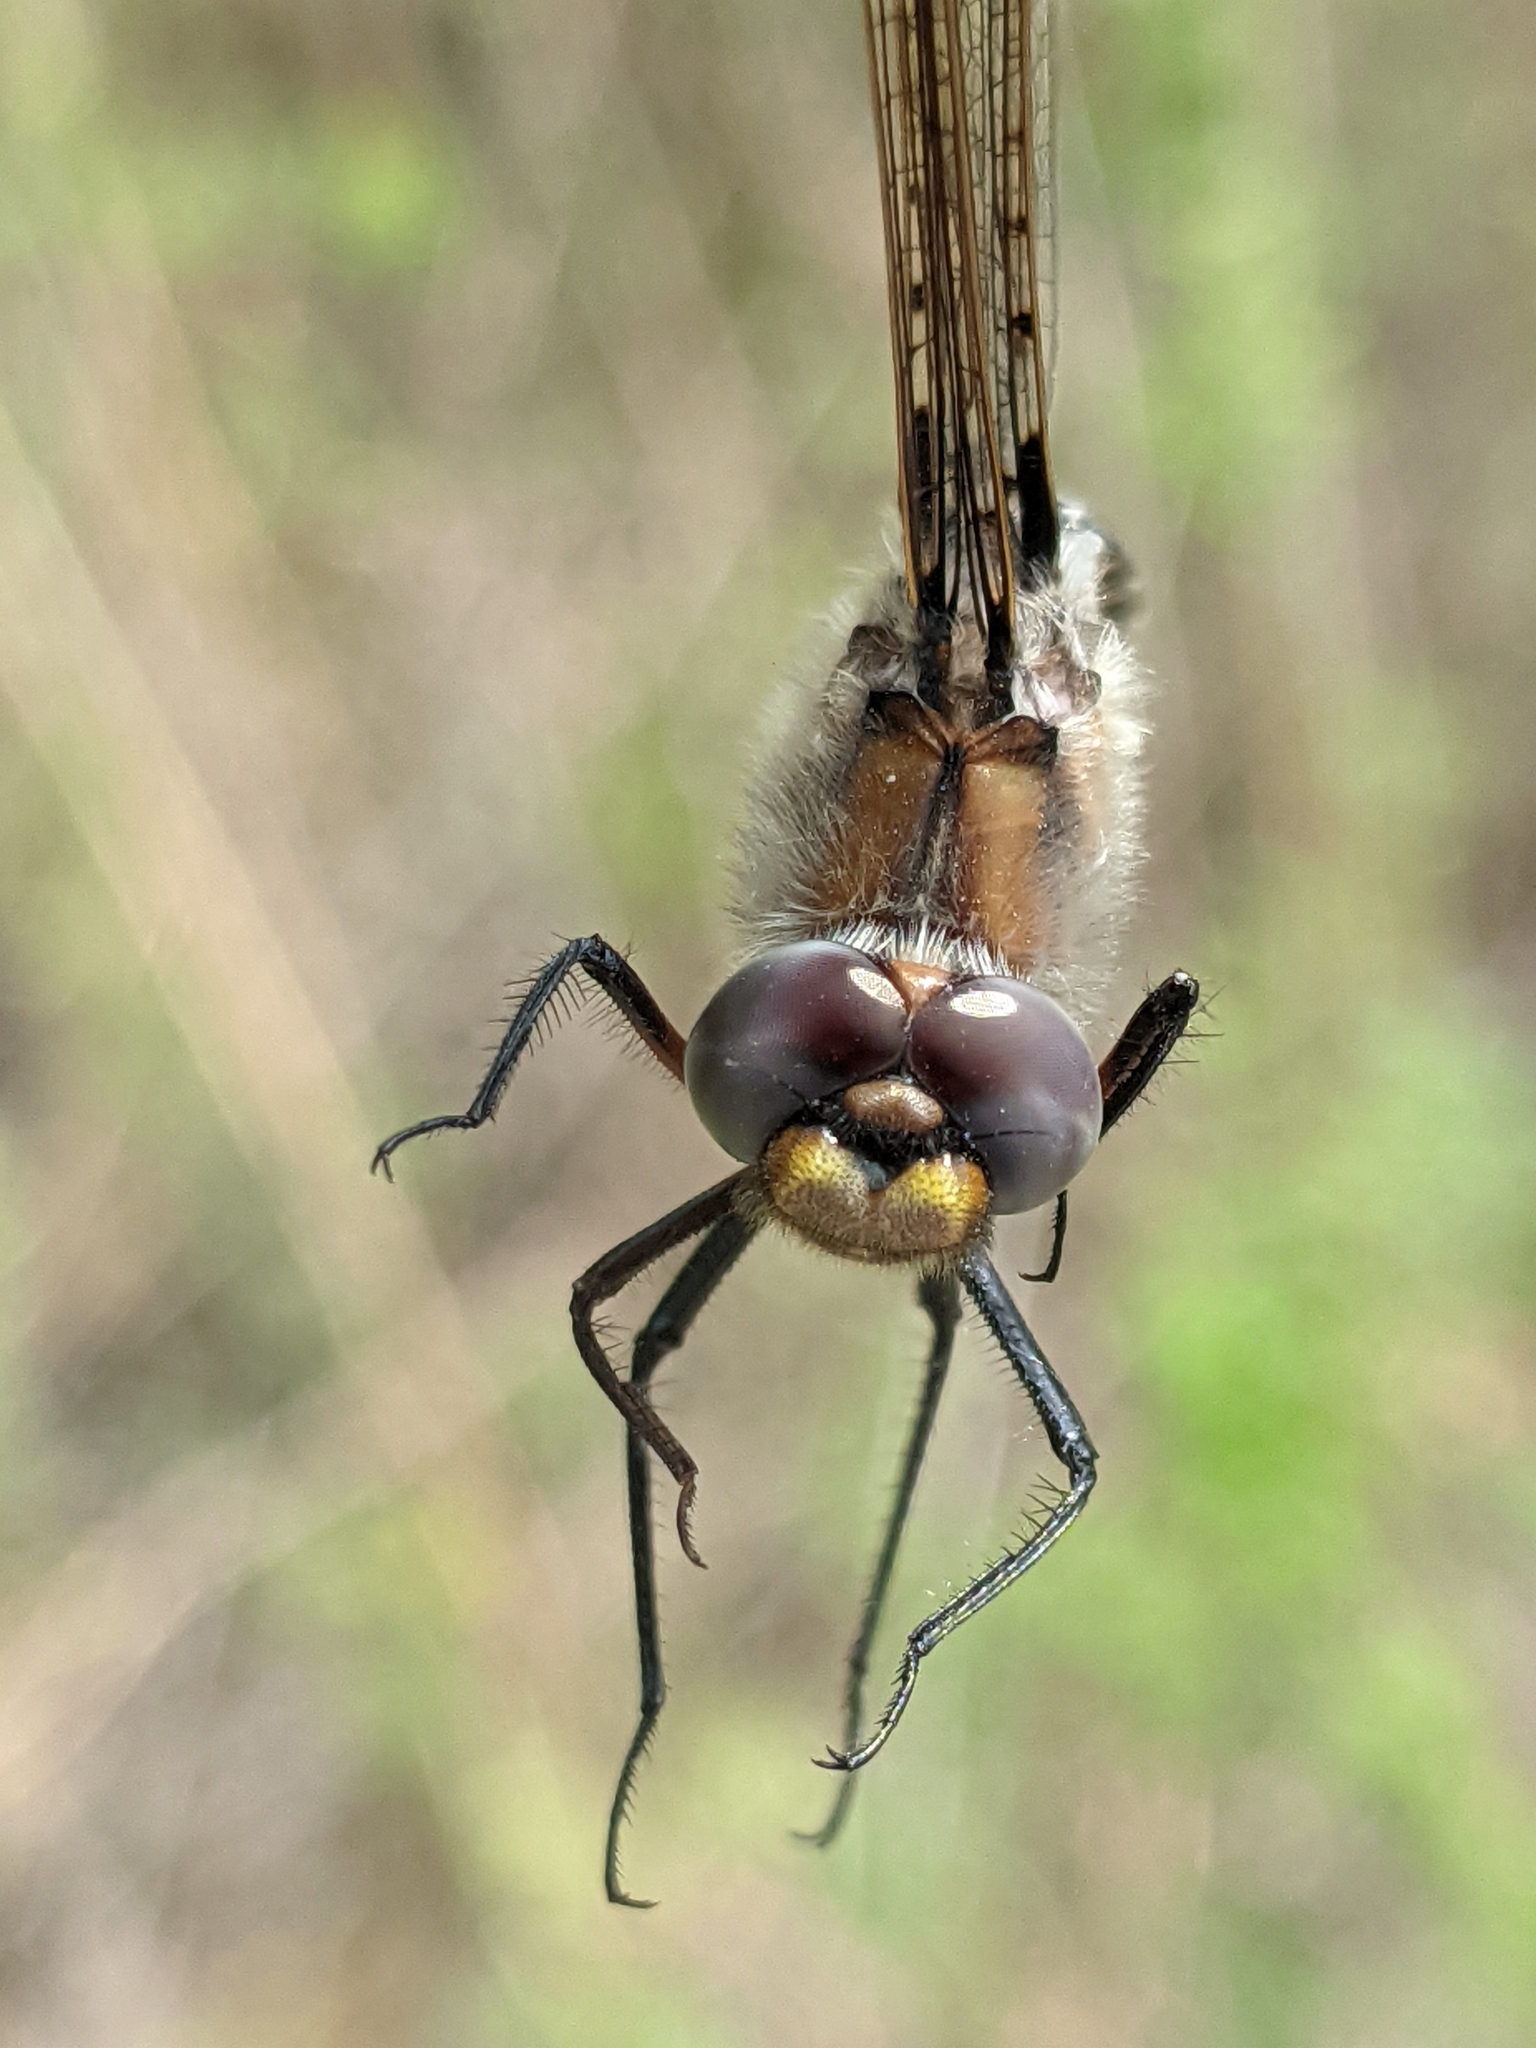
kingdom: Animalia
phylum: Arthropoda
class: Insecta
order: Odonata
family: Corduliidae
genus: Epitheca
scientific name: Epitheca canis
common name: Beaverpond baskettail
